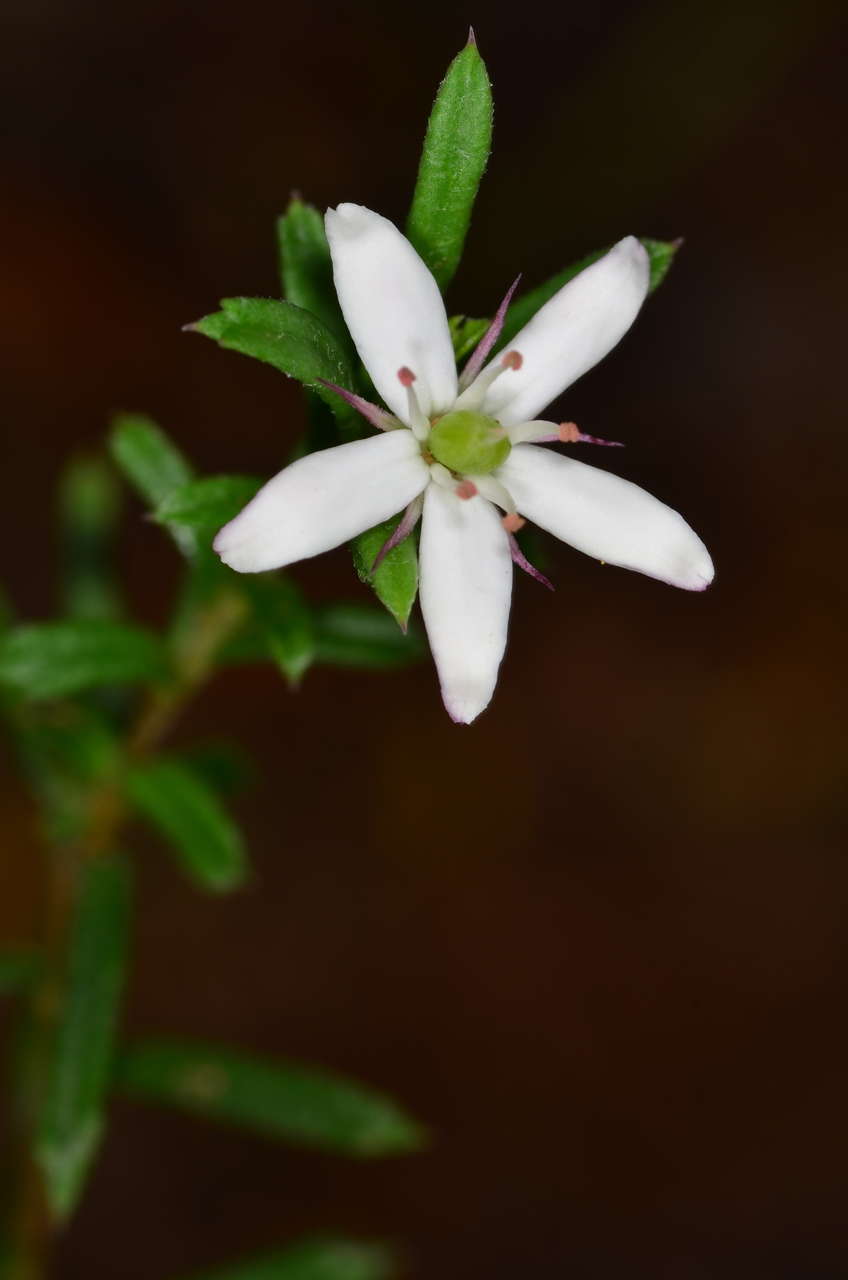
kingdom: Plantae
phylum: Tracheophyta
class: Magnoliopsida
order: Apiales
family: Pittosporaceae
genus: Rhytidosporum
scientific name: Rhytidosporum procumbens
